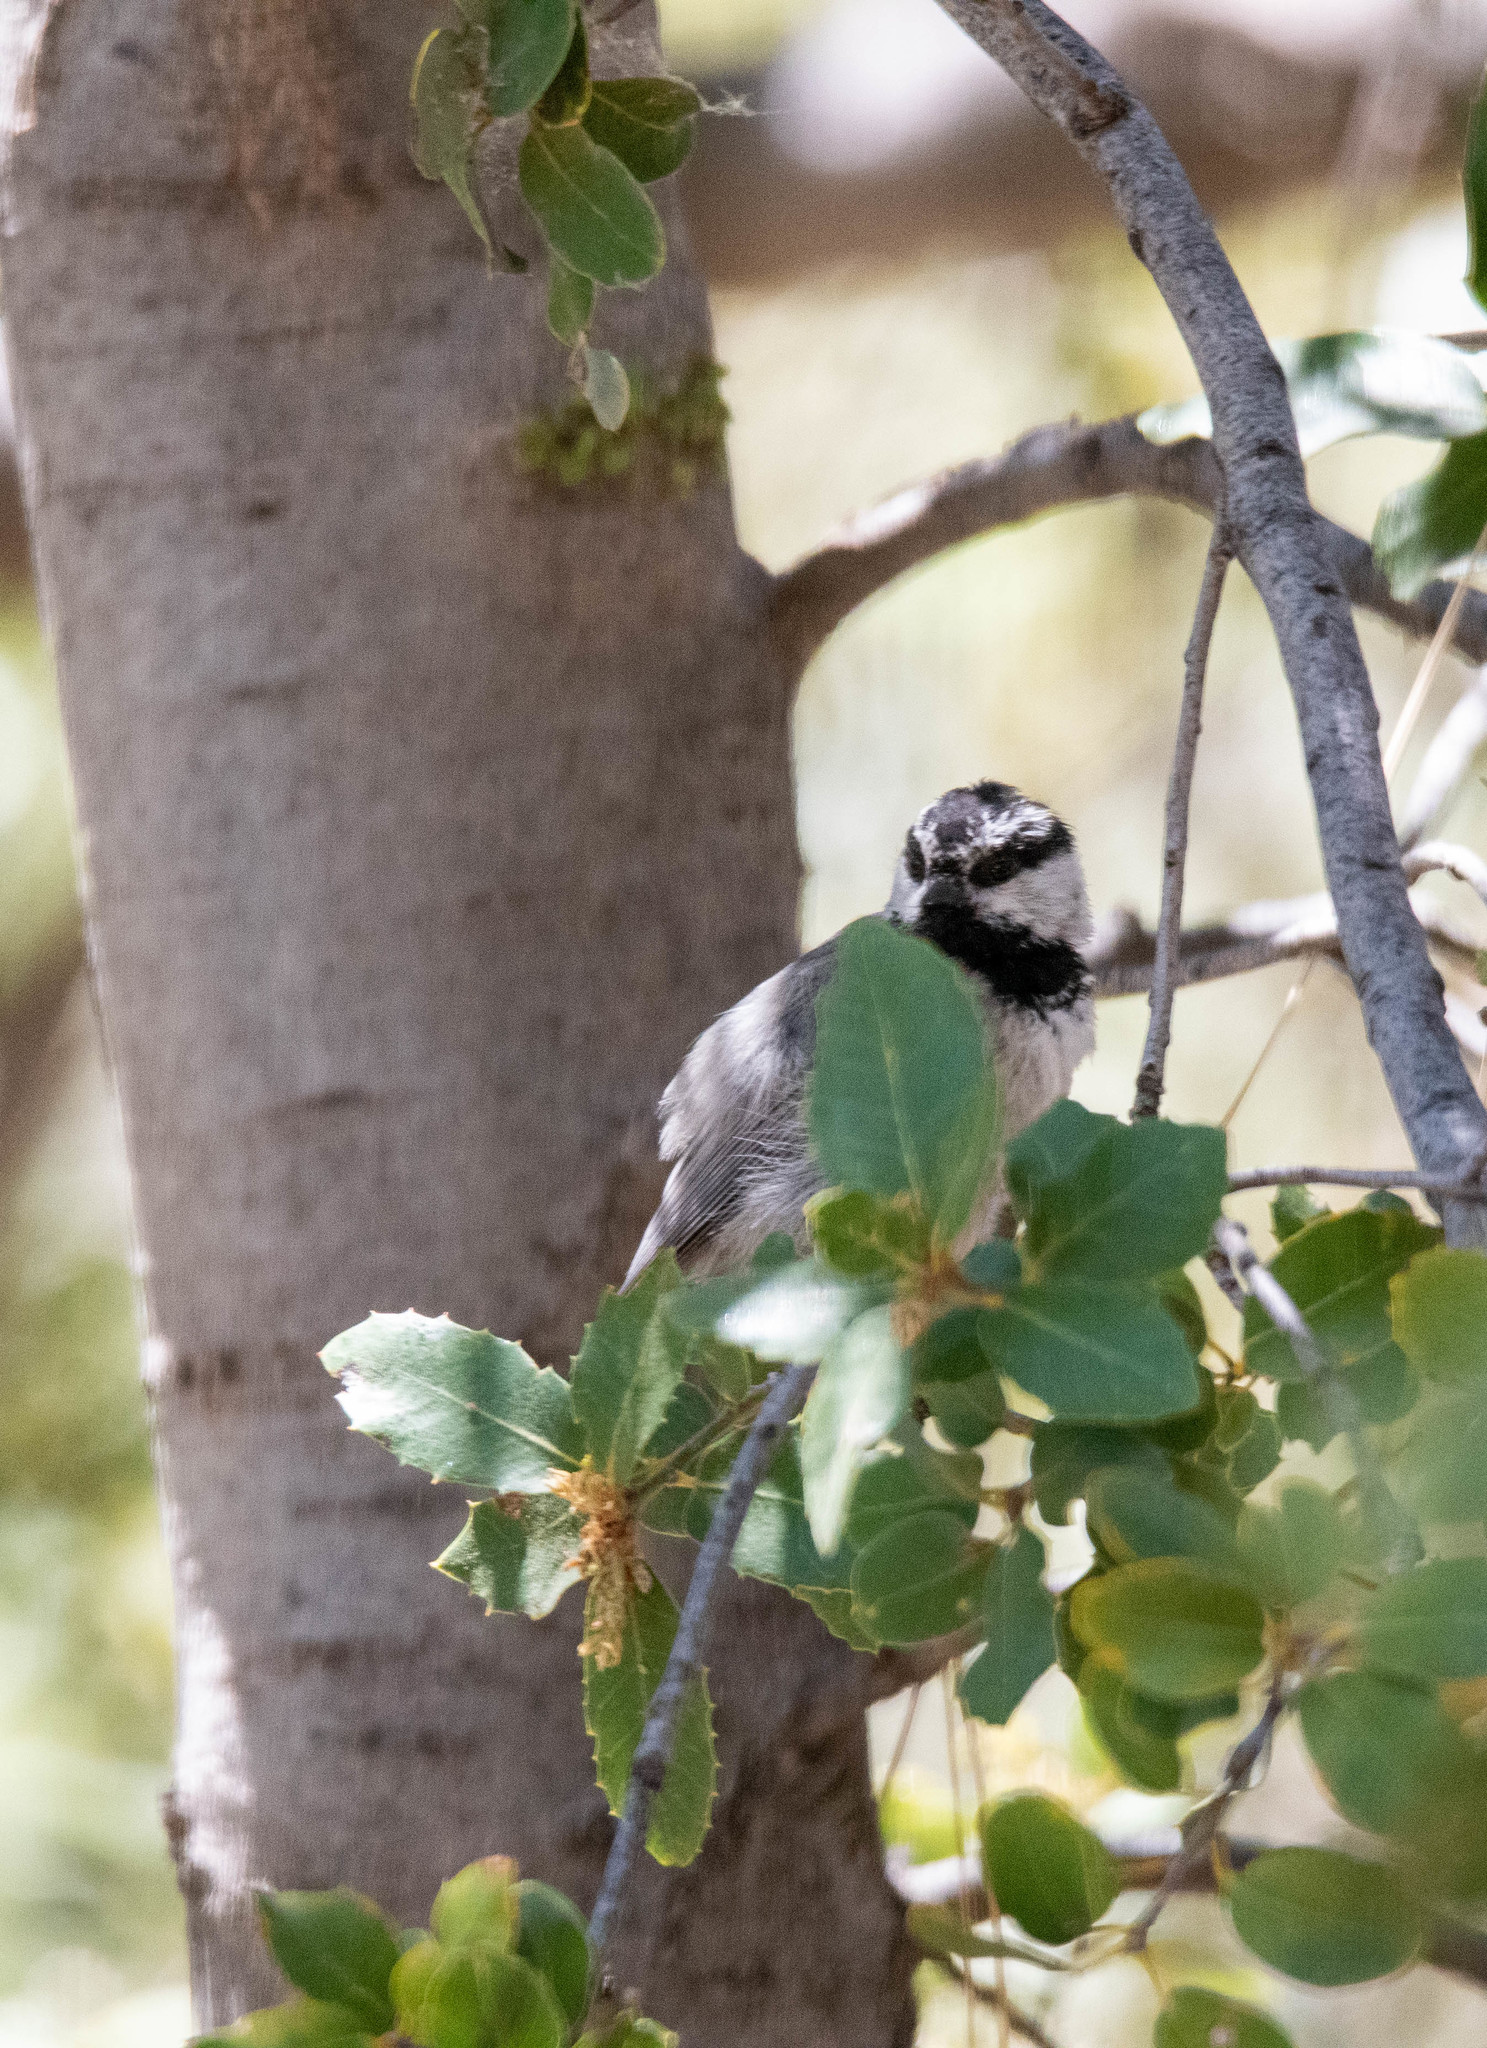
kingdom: Animalia
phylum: Chordata
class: Aves
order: Passeriformes
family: Paridae
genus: Poecile
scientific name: Poecile gambeli
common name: Mountain chickadee
